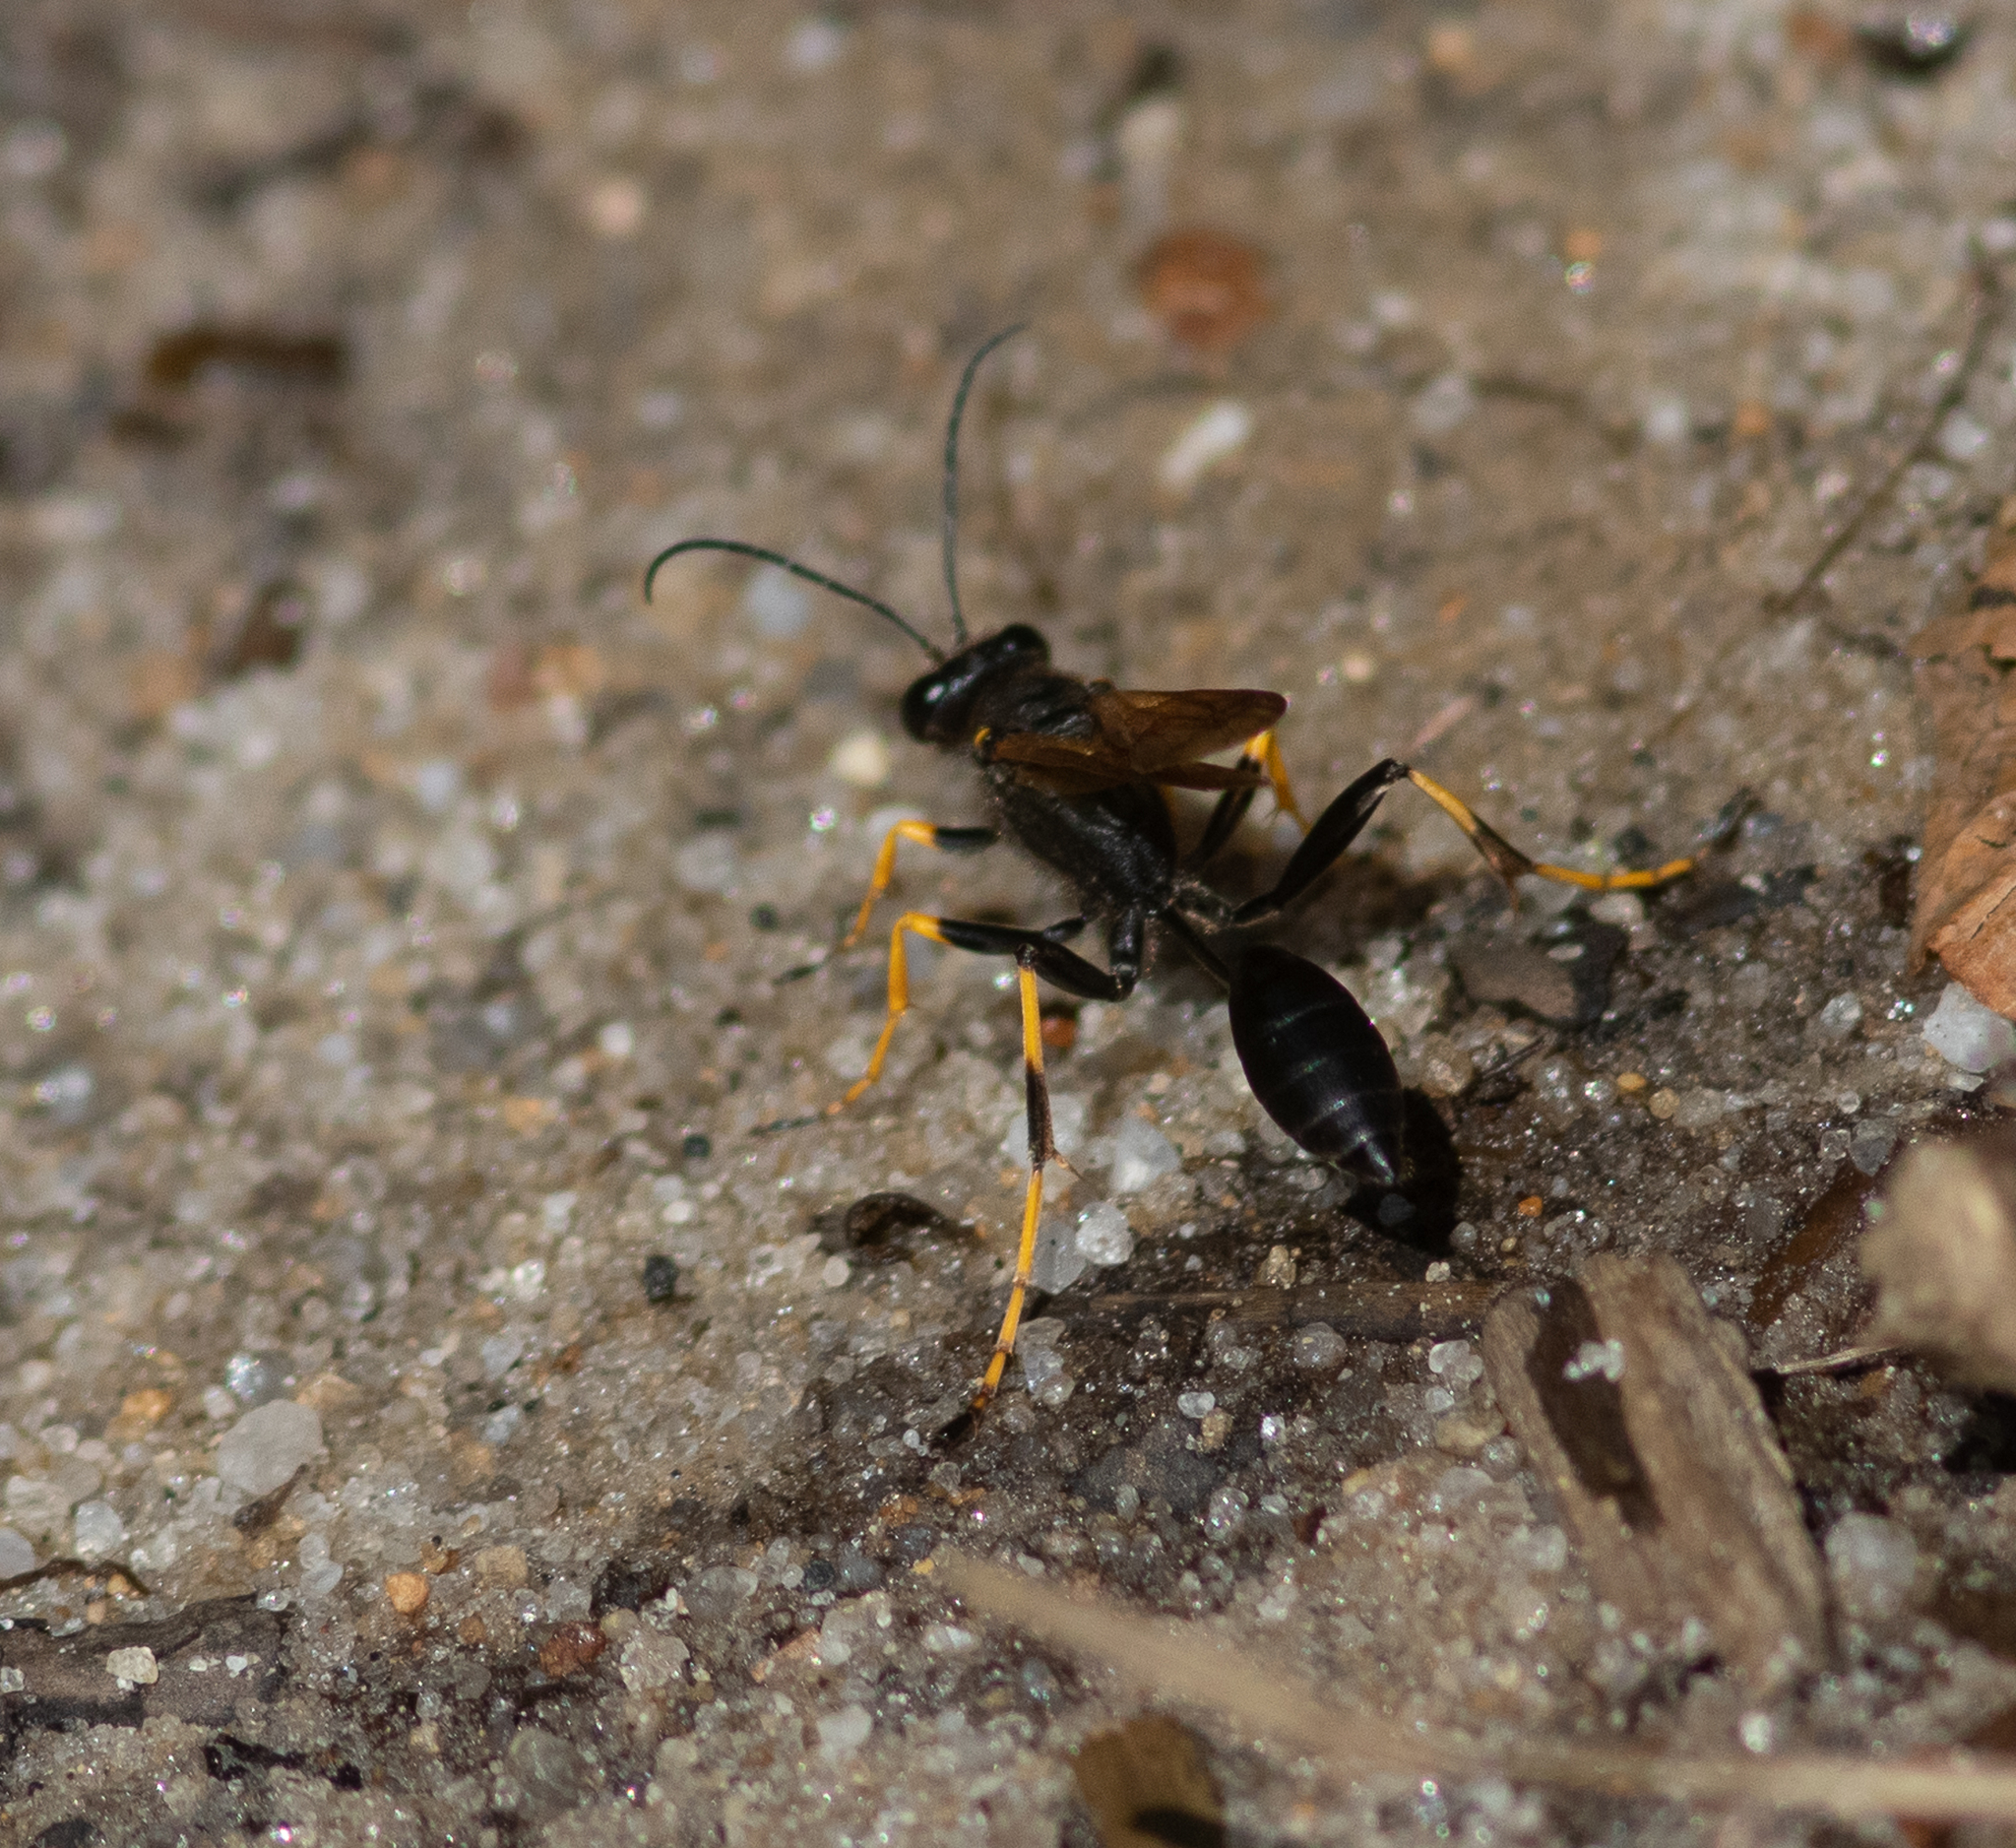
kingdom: Animalia
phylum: Arthropoda
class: Insecta
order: Hymenoptera
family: Sphecidae
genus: Sceliphron
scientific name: Sceliphron caementarium
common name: Mud dauber
